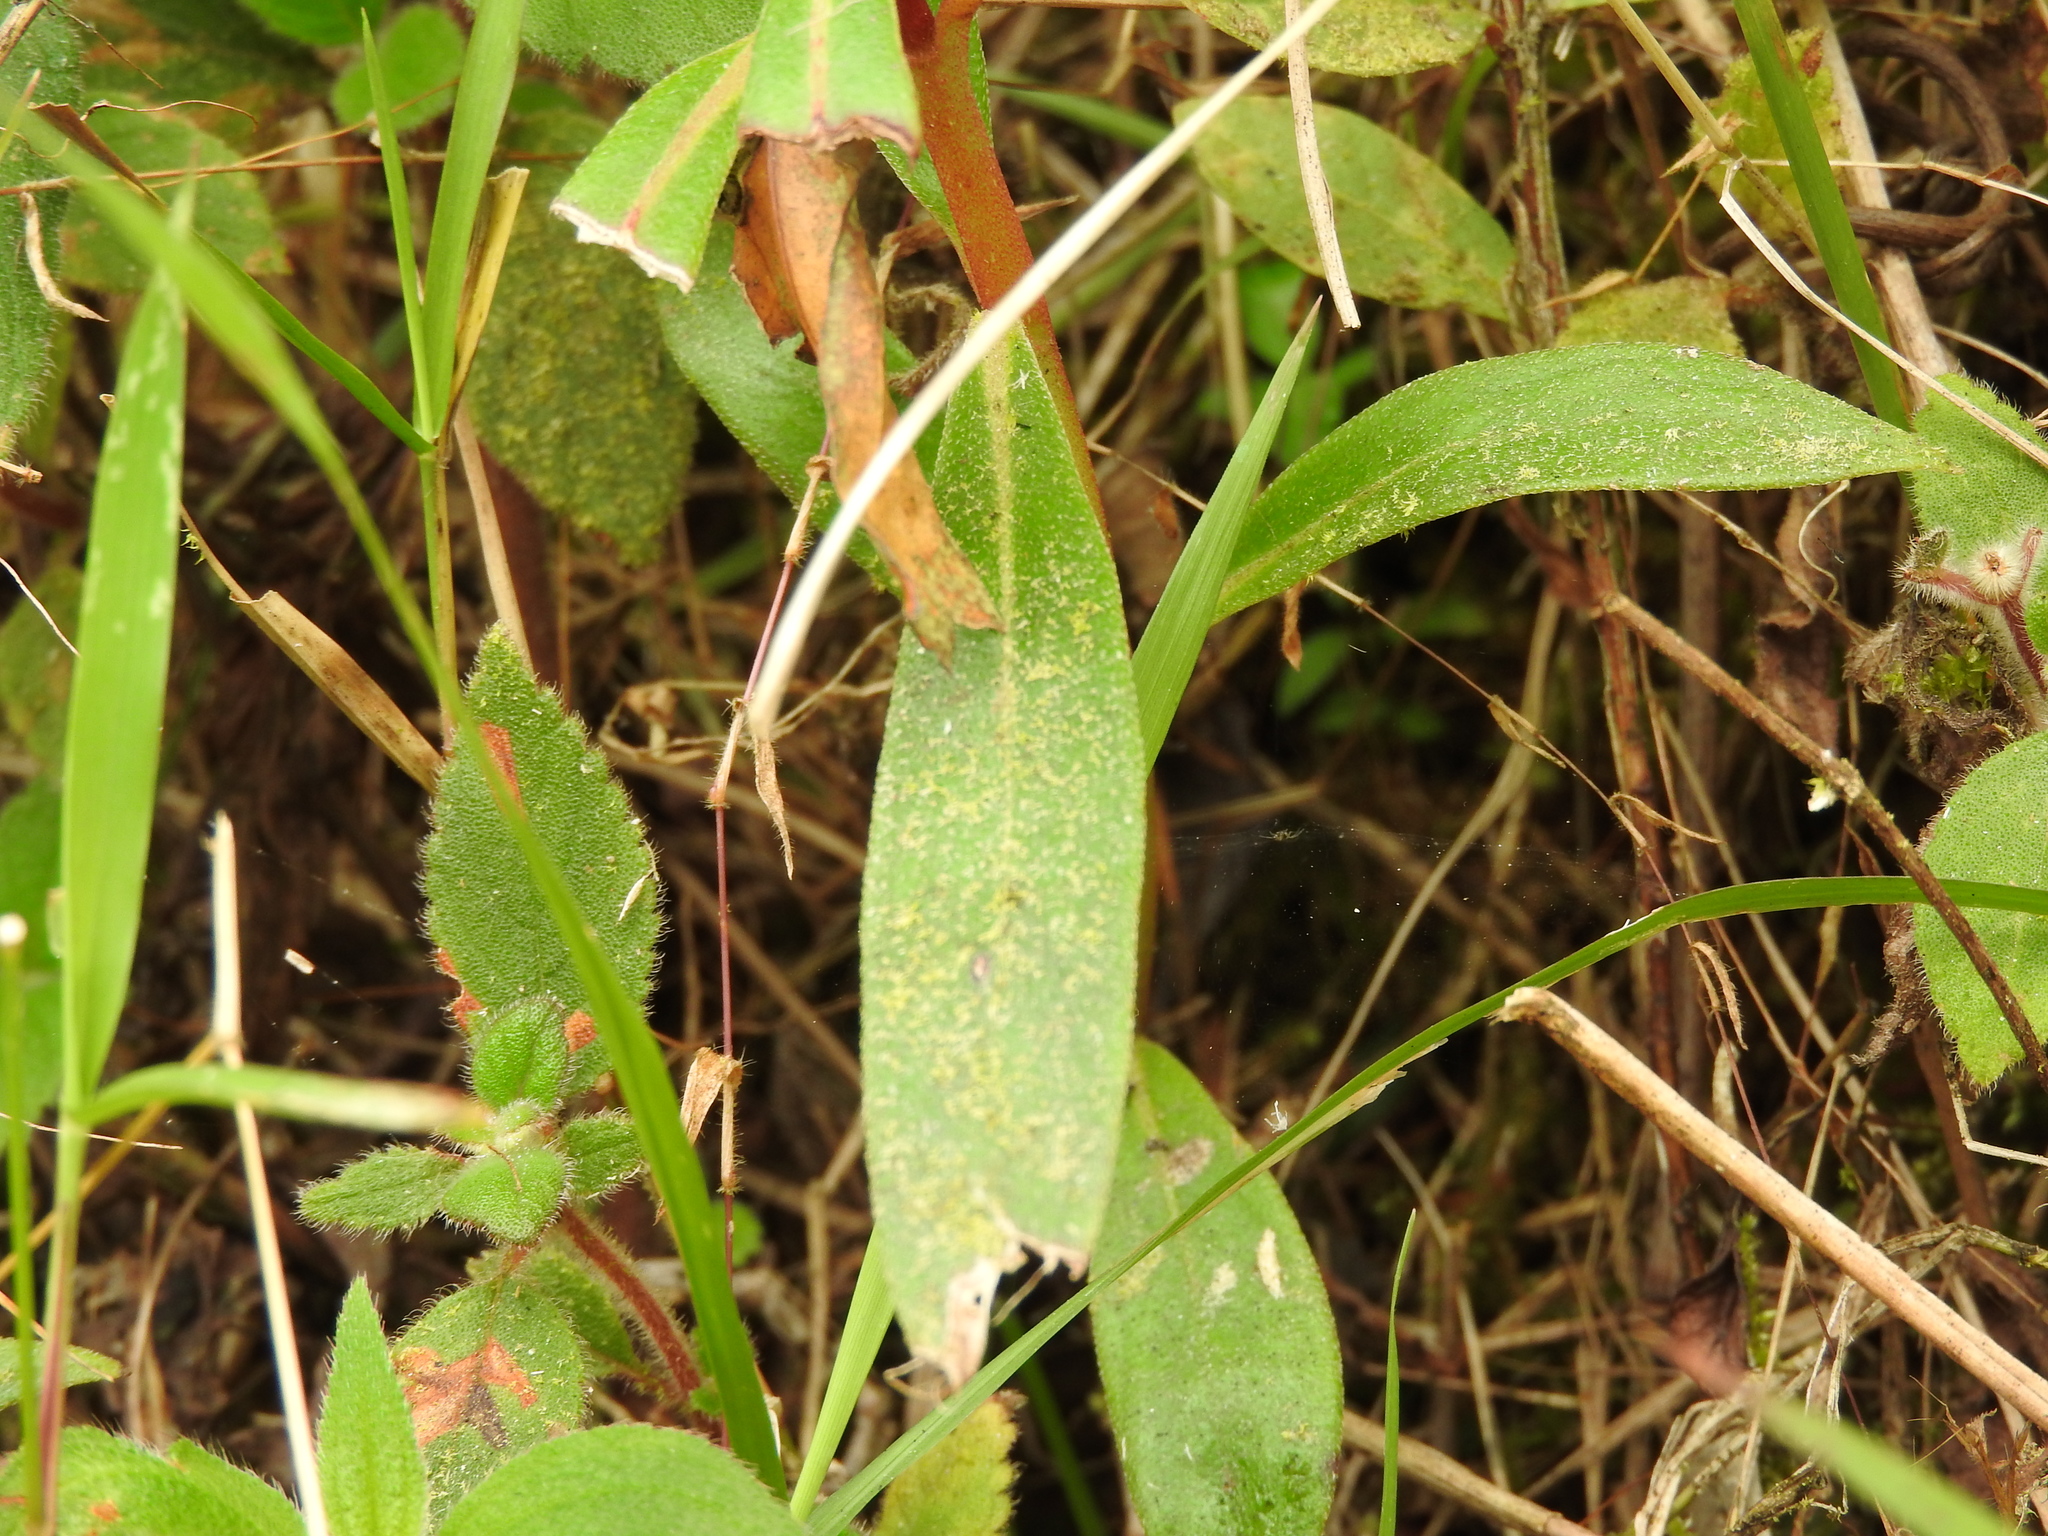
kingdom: Plantae
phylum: Tracheophyta
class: Magnoliopsida
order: Lamiales
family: Gesneriaceae
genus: Seemannia
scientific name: Seemannia sylvatica
